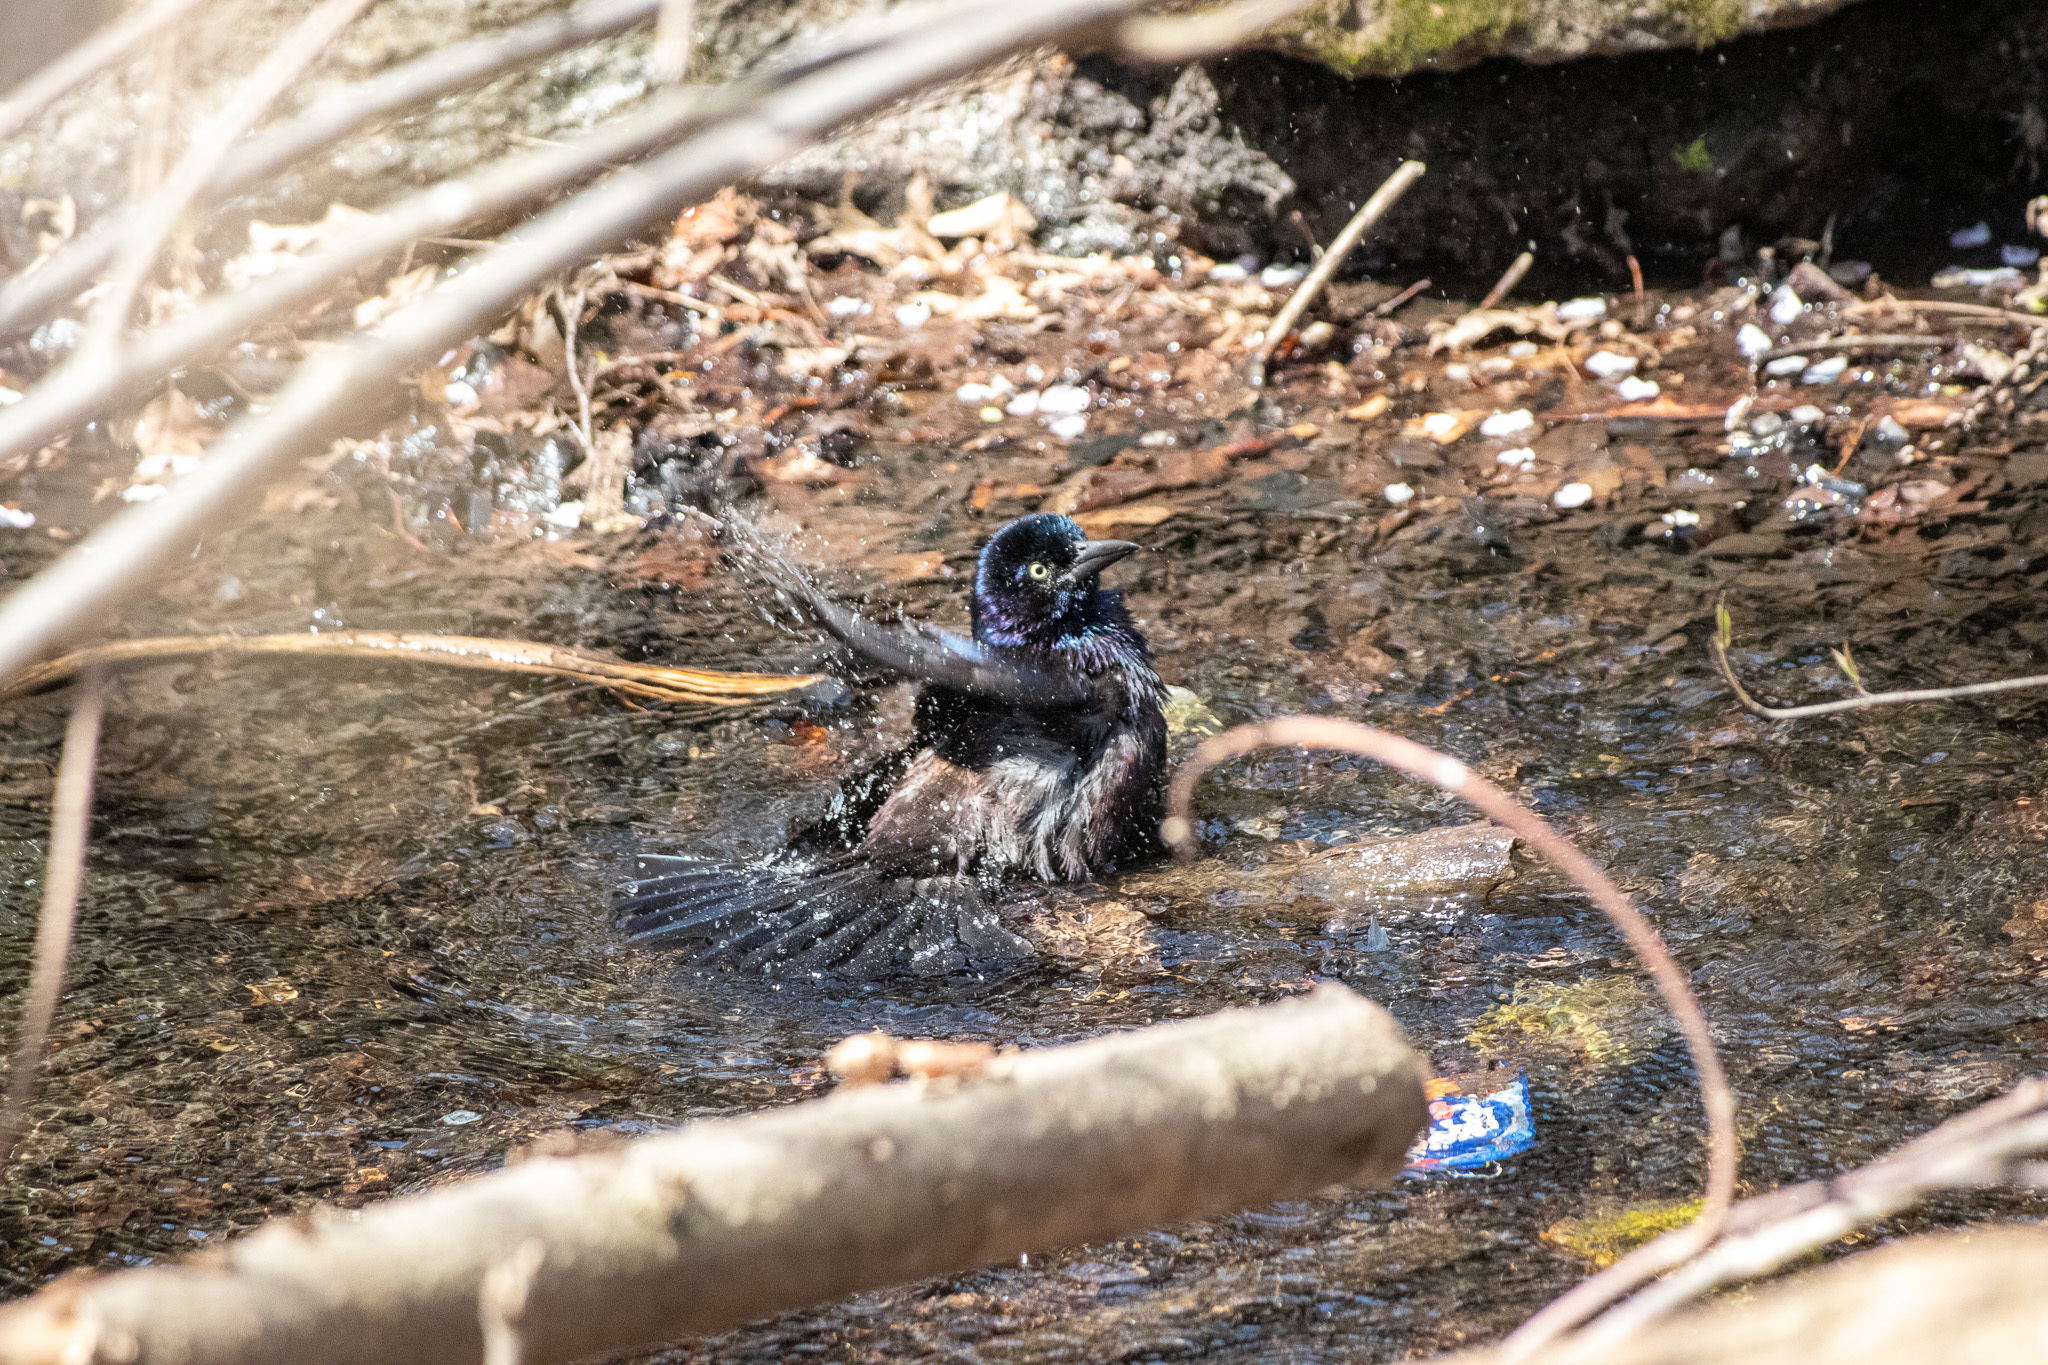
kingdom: Animalia
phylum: Chordata
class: Aves
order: Passeriformes
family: Icteridae
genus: Quiscalus
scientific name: Quiscalus quiscula
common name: Common grackle
